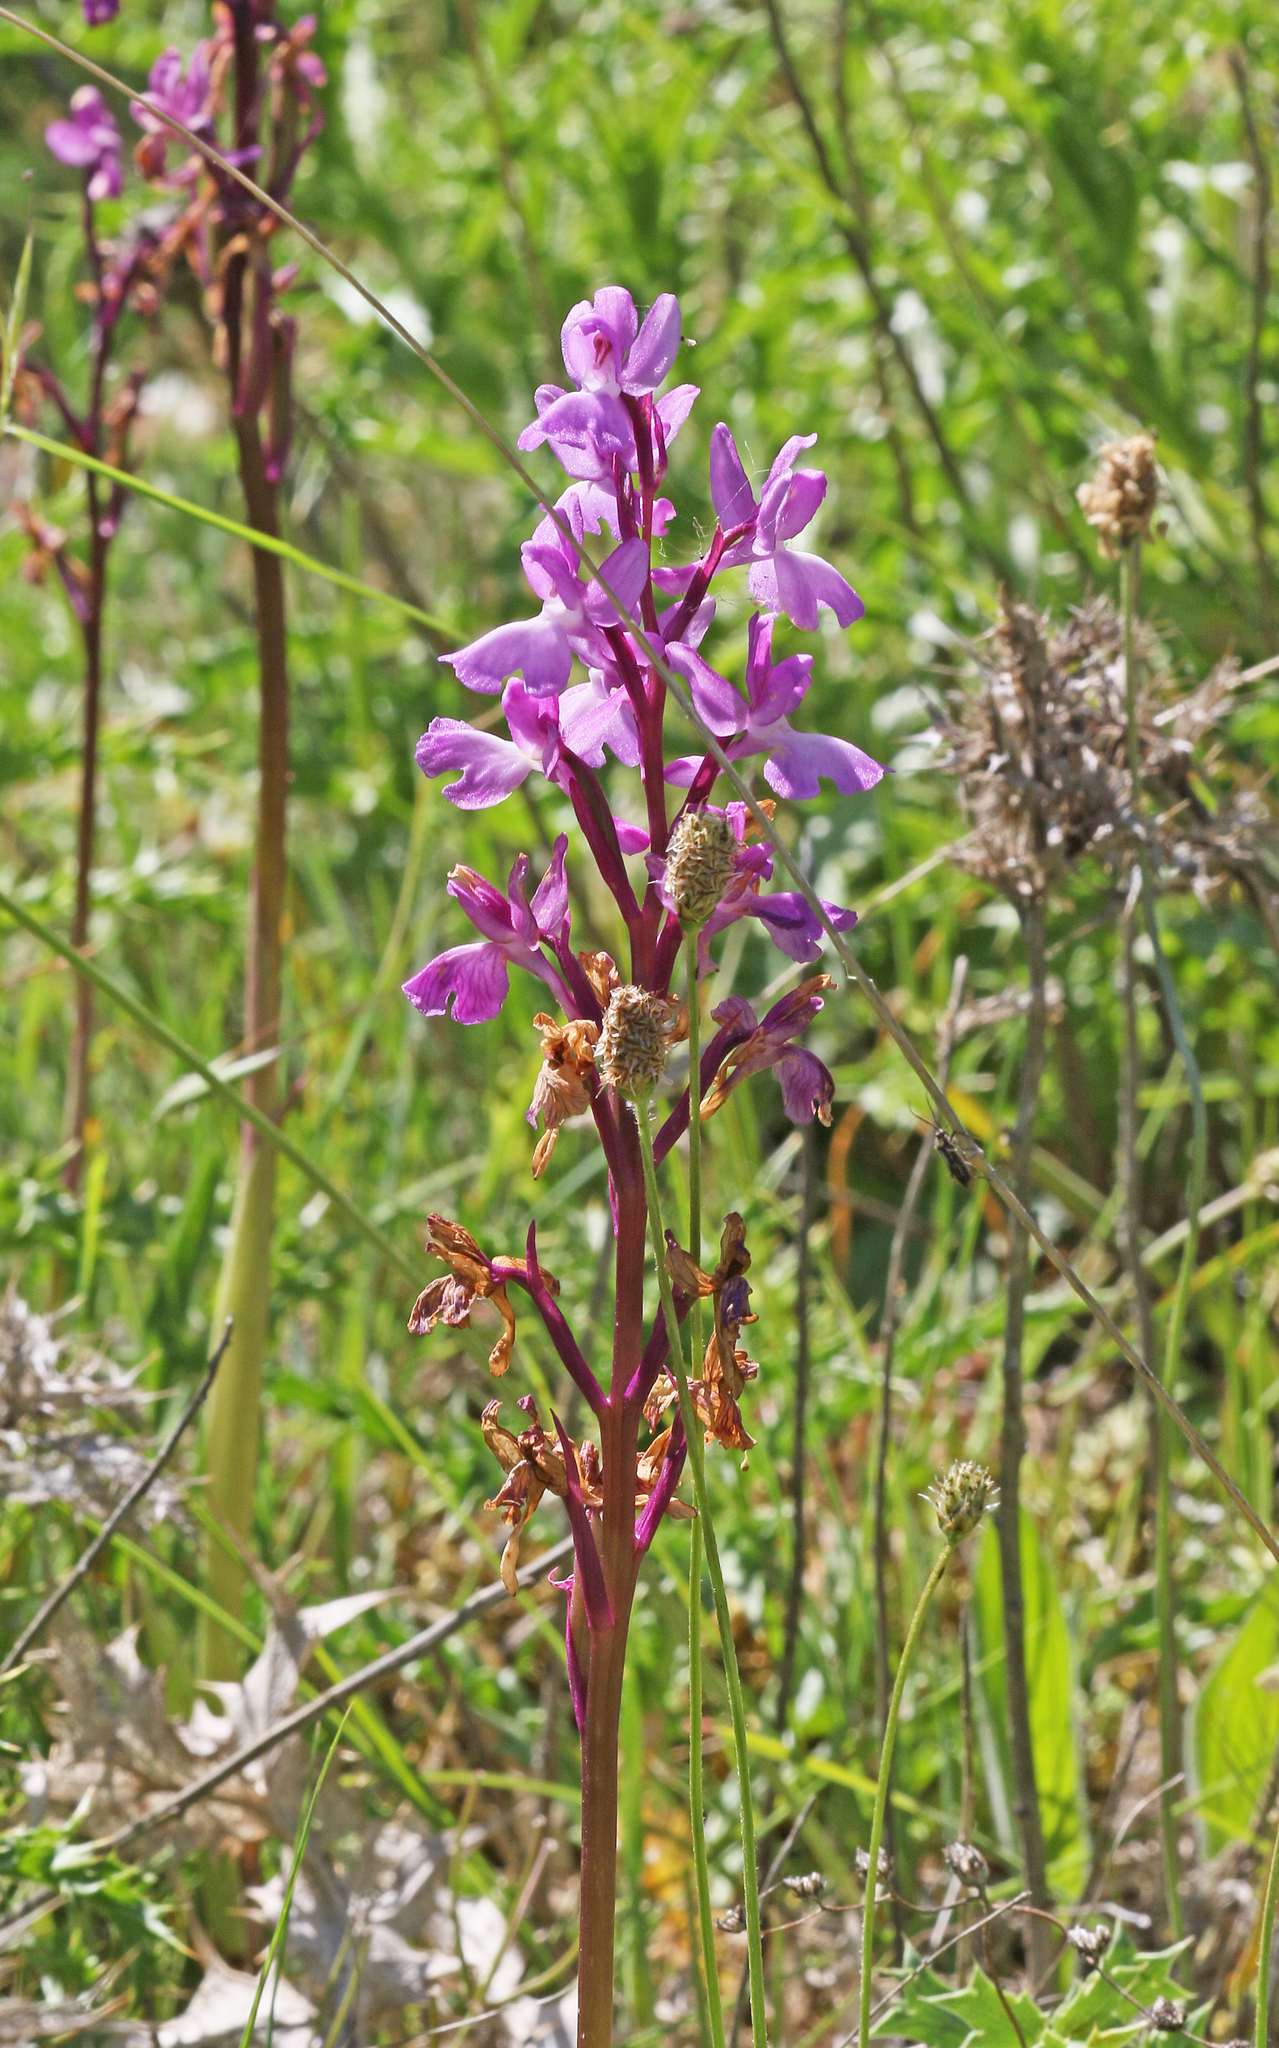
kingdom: Plantae
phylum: Tracheophyta
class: Liliopsida
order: Asparagales
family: Orchidaceae
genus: Orchis
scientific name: Orchis mascula
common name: Early-purple orchid
